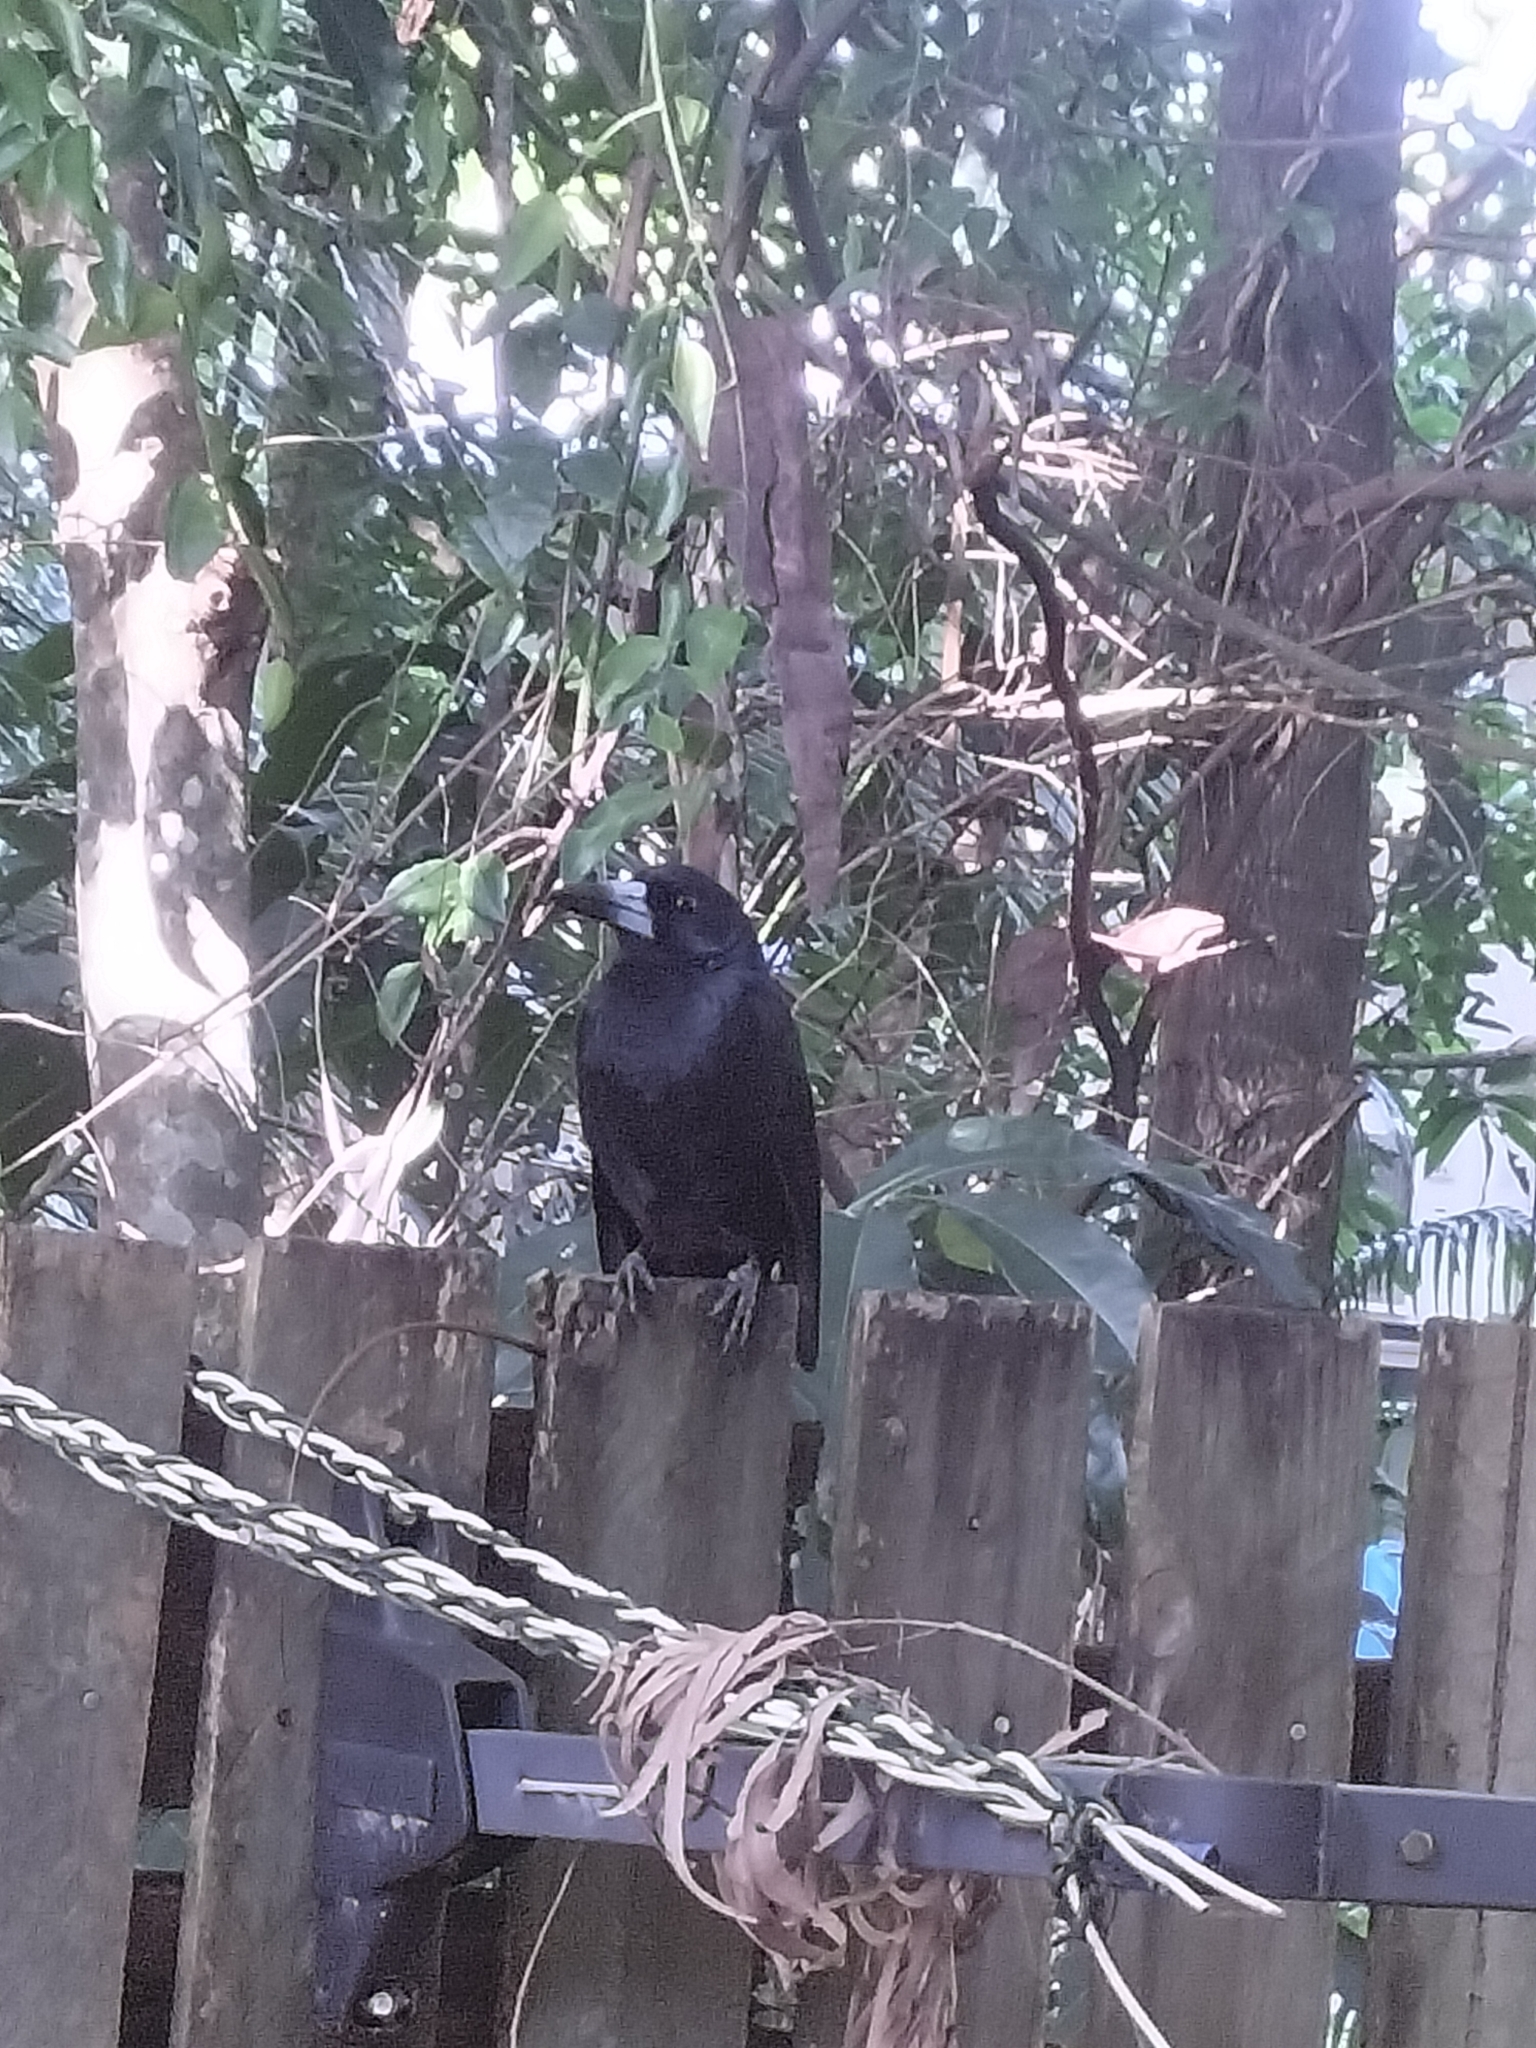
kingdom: Animalia
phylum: Chordata
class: Aves
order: Passeriformes
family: Artamidae
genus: Melloria
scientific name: Melloria quoyi
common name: Black butcherbird
